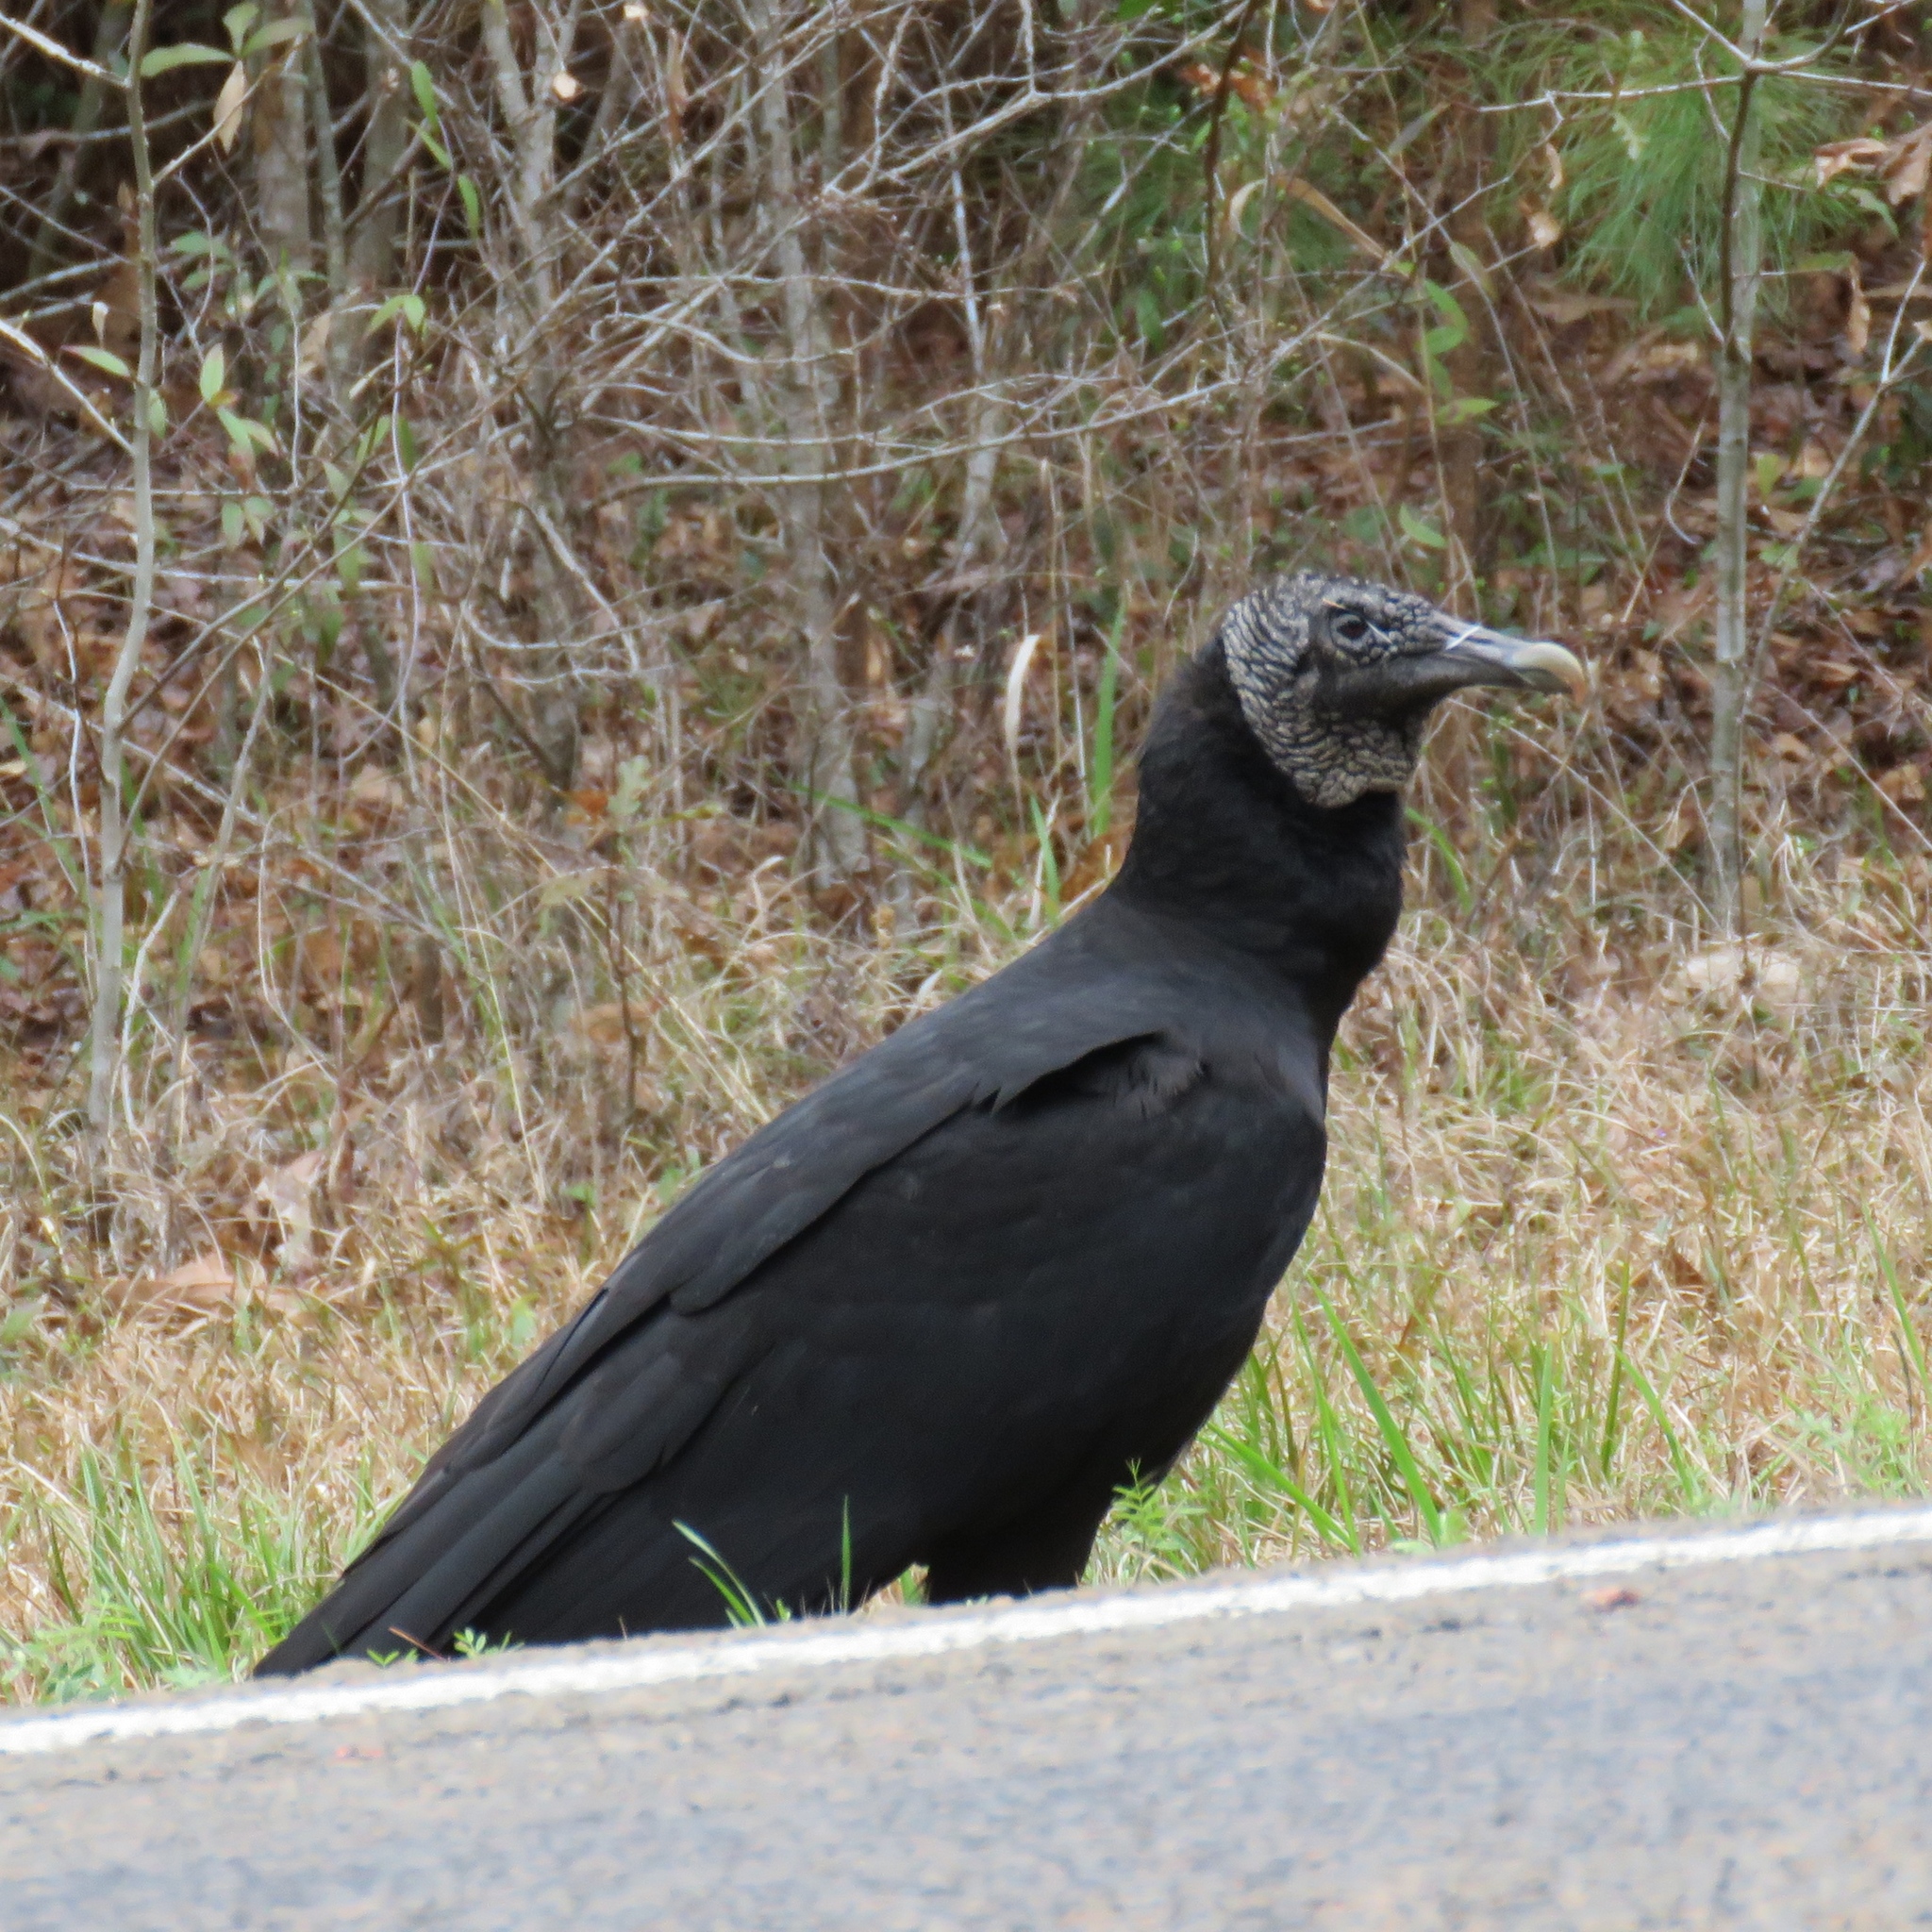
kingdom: Animalia
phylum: Chordata
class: Aves
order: Accipitriformes
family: Cathartidae
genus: Coragyps
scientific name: Coragyps atratus
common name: Black vulture
